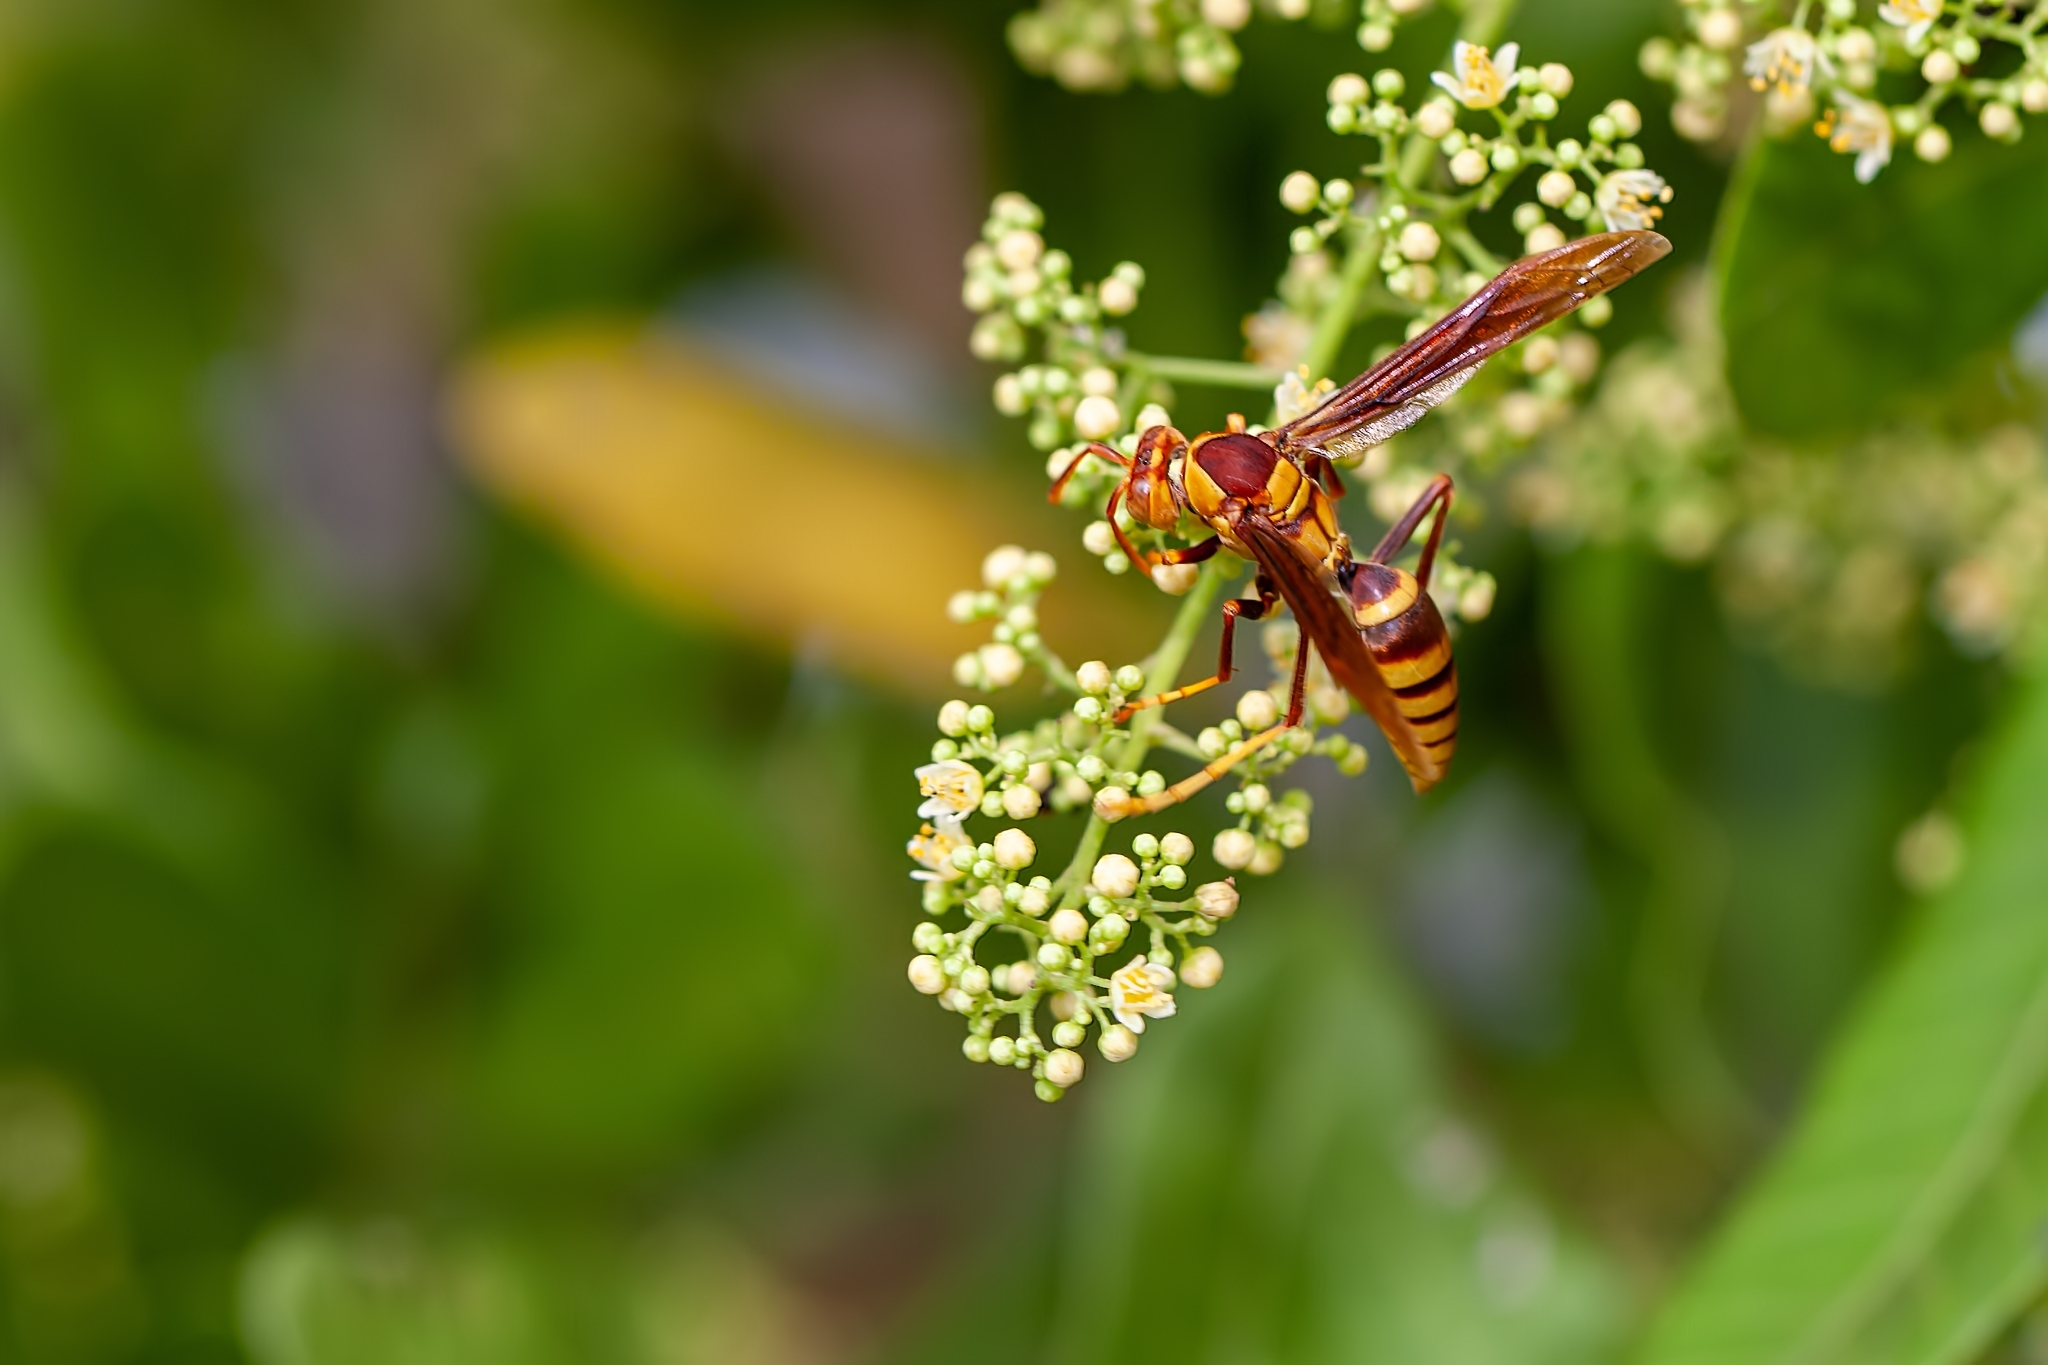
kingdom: Animalia
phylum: Arthropoda
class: Insecta
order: Hymenoptera
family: Eumenidae
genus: Polistes
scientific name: Polistes major
